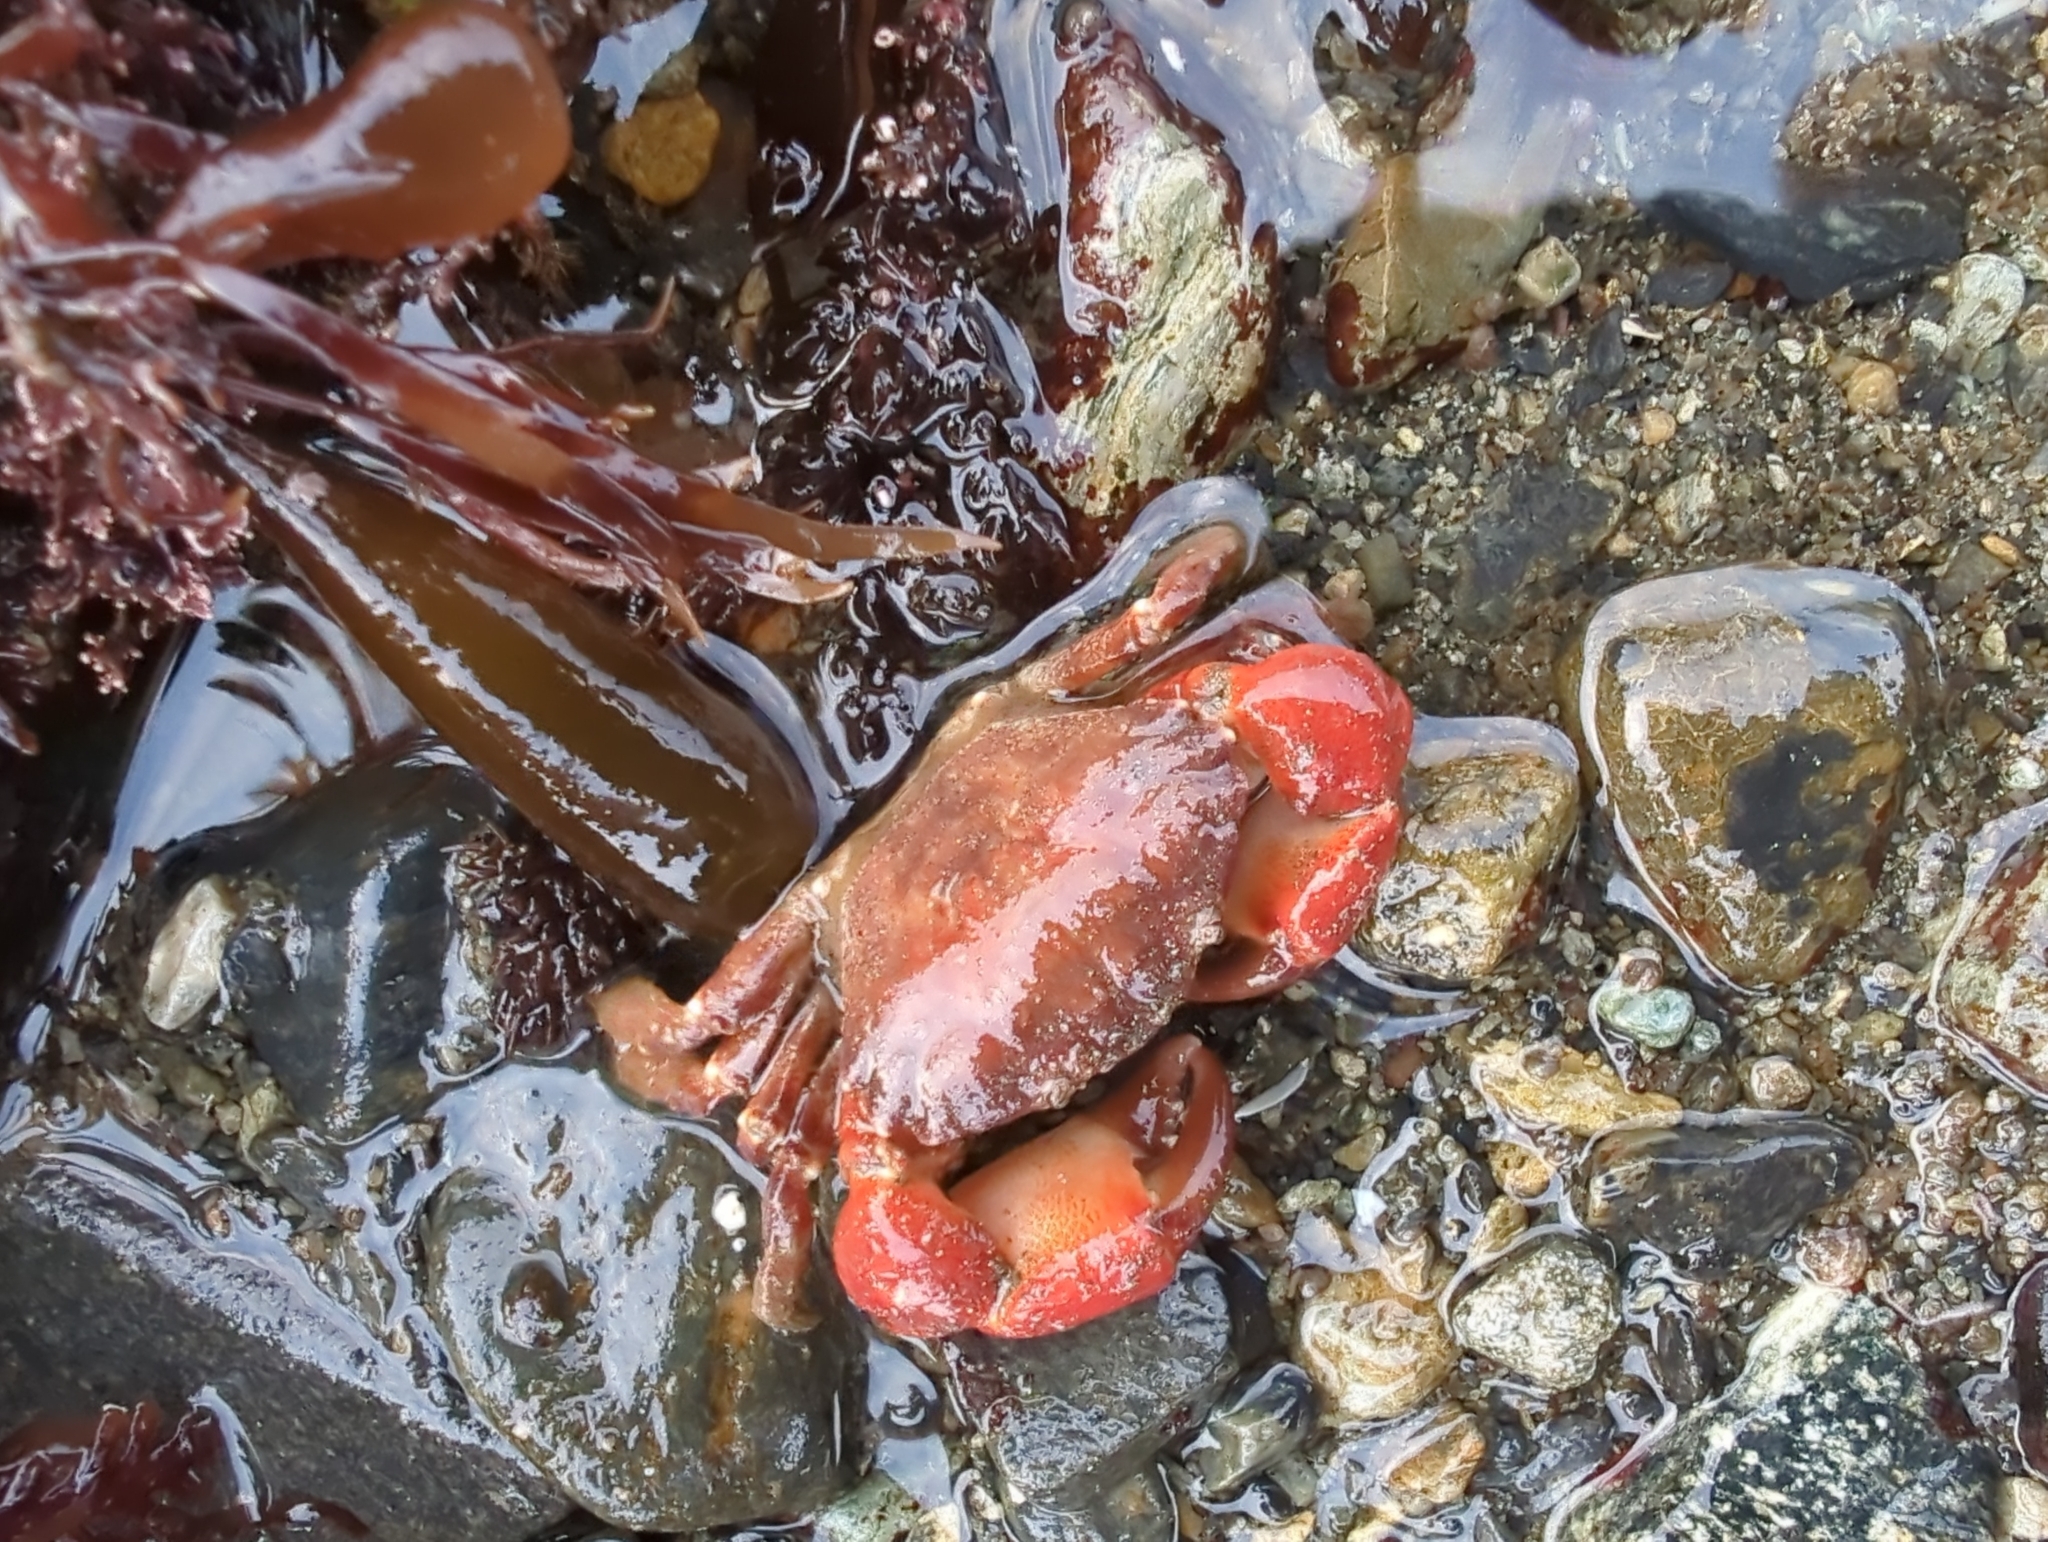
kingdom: Animalia
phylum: Arthropoda
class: Malacostraca
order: Decapoda
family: Panopeidae
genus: Lophopanopeus
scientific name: Lophopanopeus bellus
